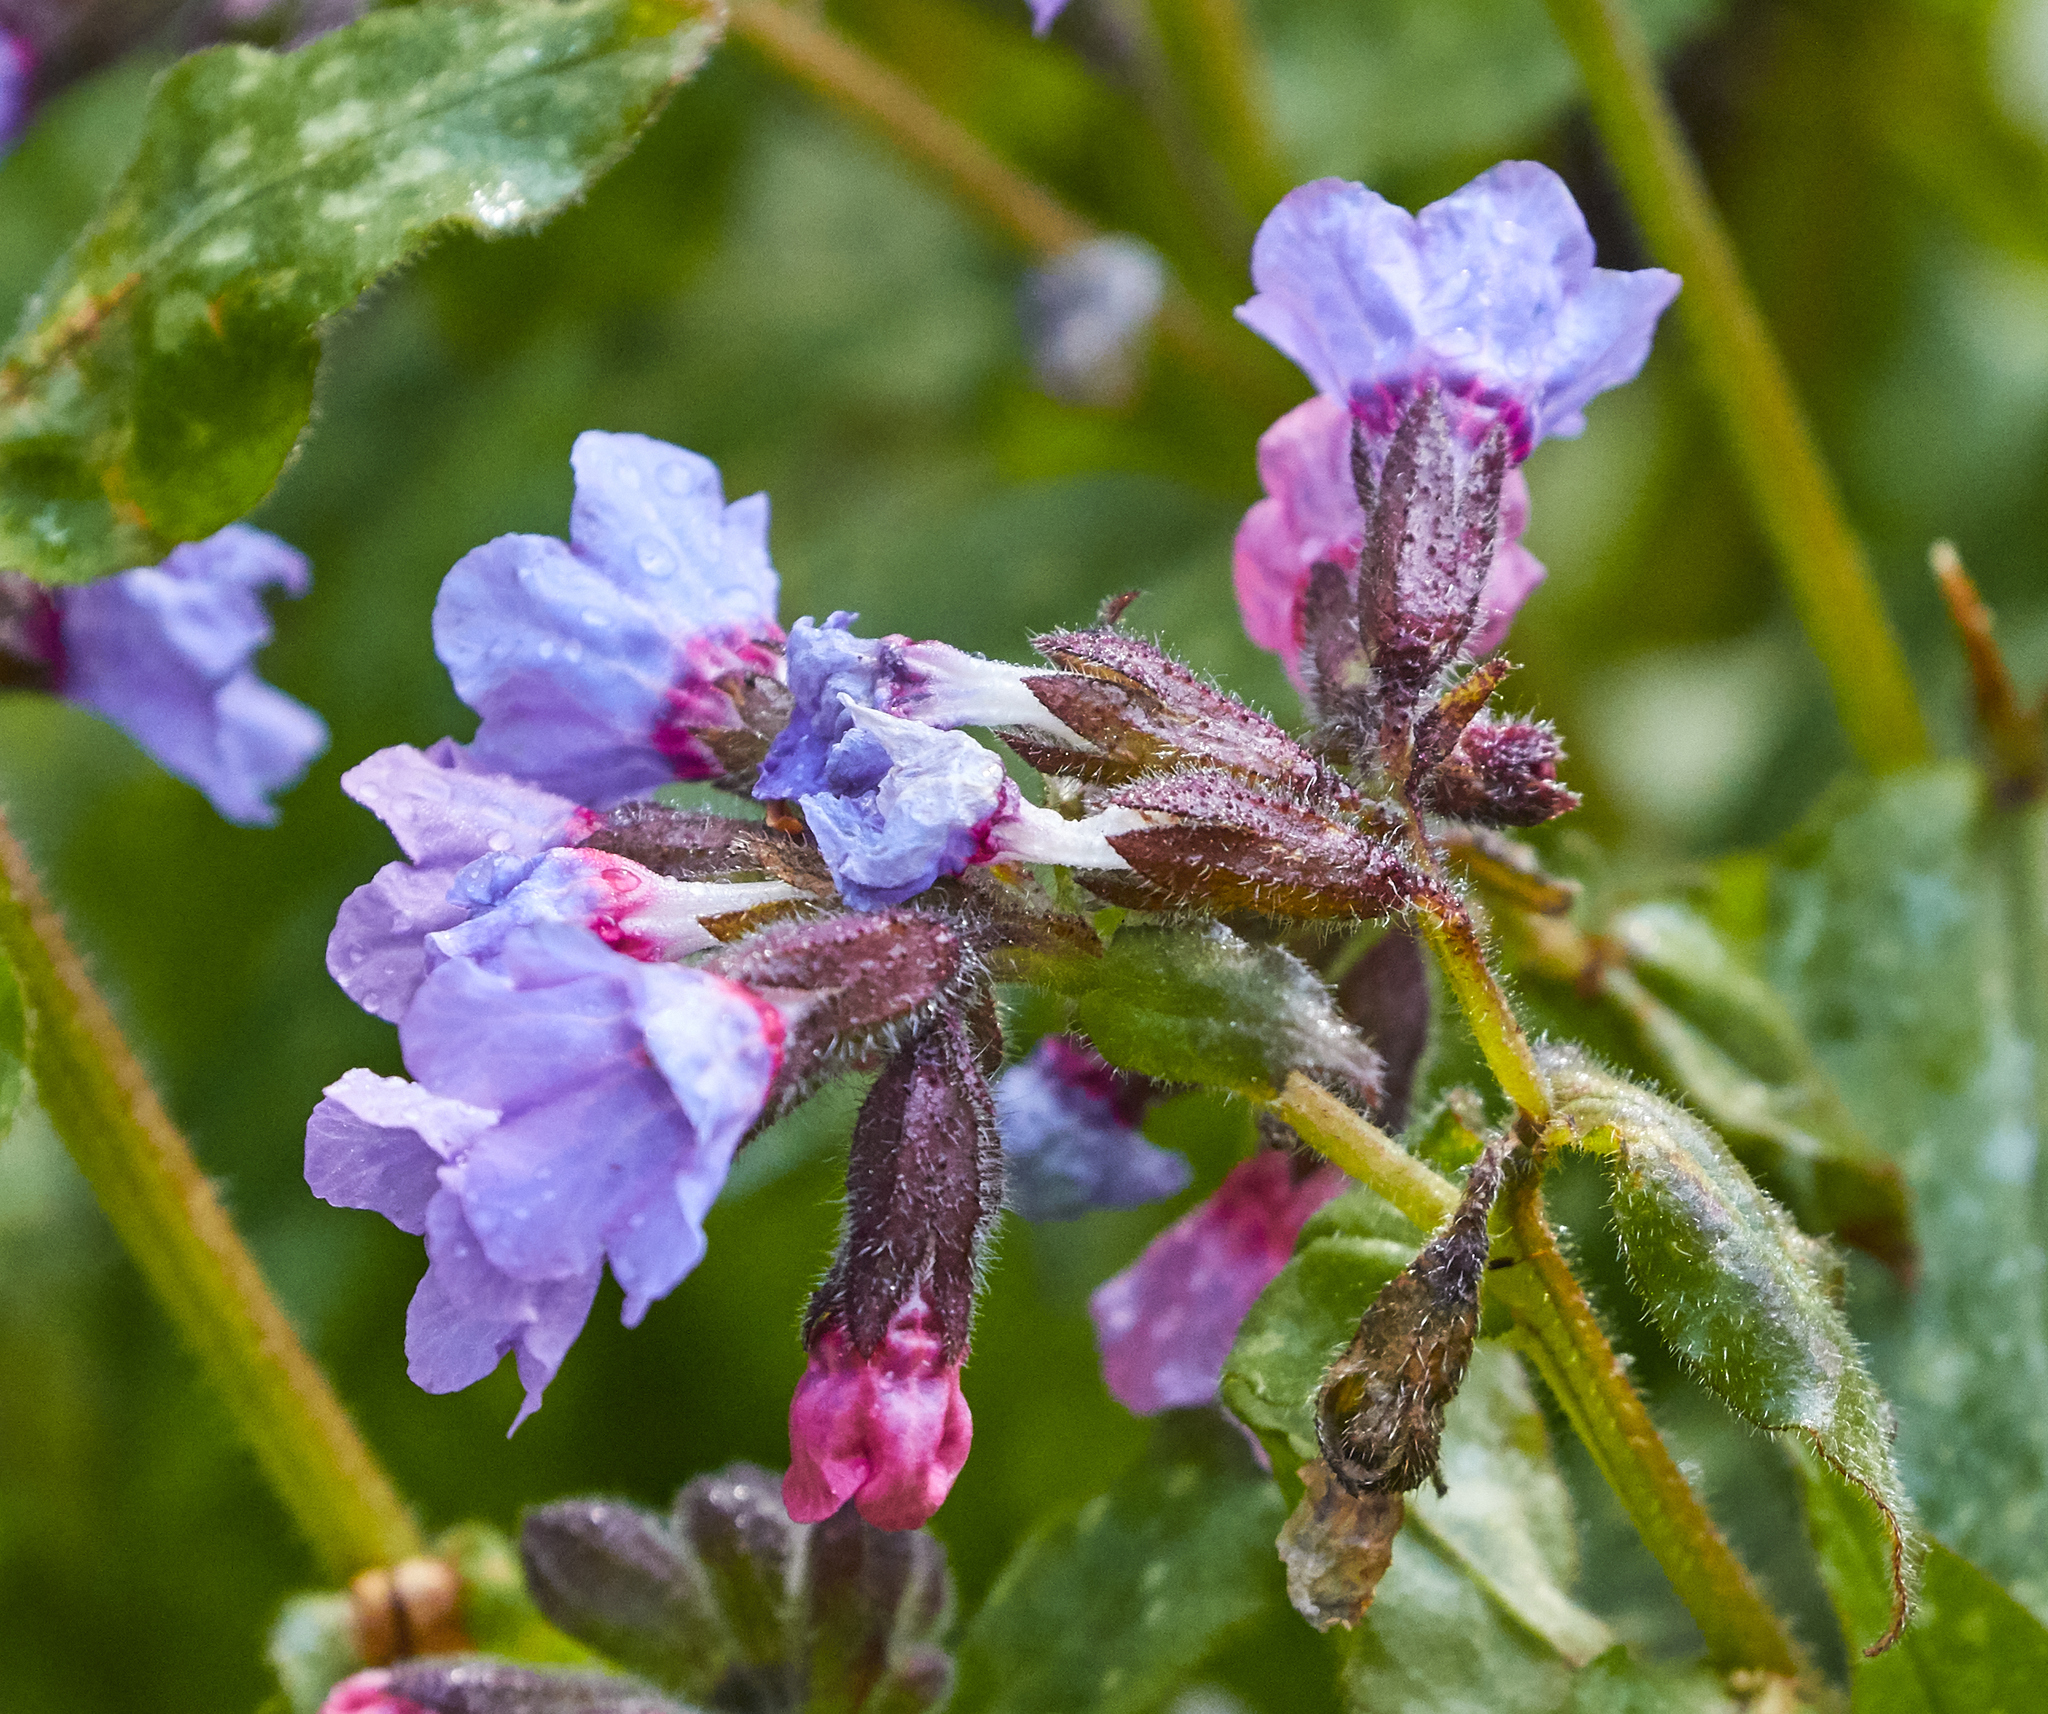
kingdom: Plantae
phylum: Tracheophyta
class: Magnoliopsida
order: Boraginales
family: Boraginaceae
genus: Pulmonaria
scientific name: Pulmonaria officinalis
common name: Lungwort
